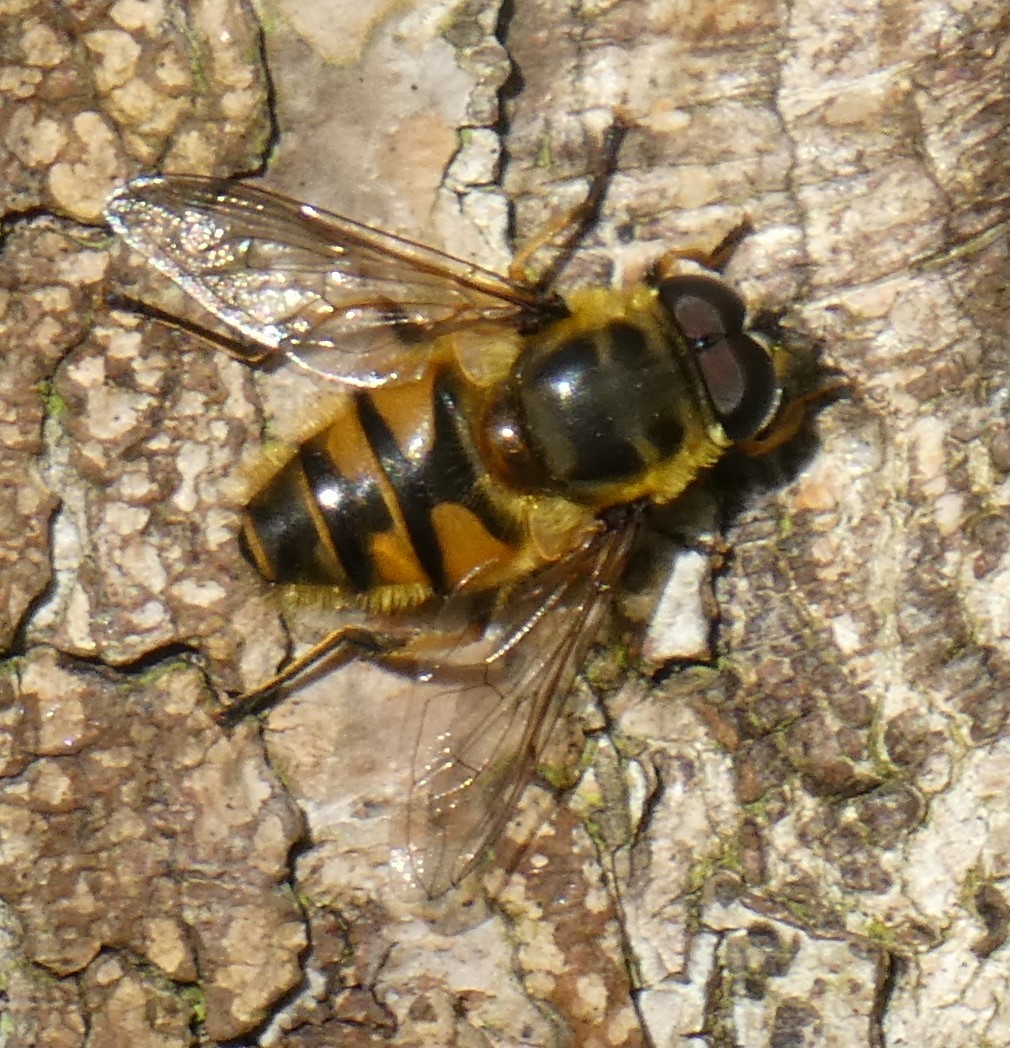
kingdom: Animalia
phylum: Arthropoda
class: Insecta
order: Diptera
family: Syrphidae
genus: Myathropa
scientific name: Myathropa florea
